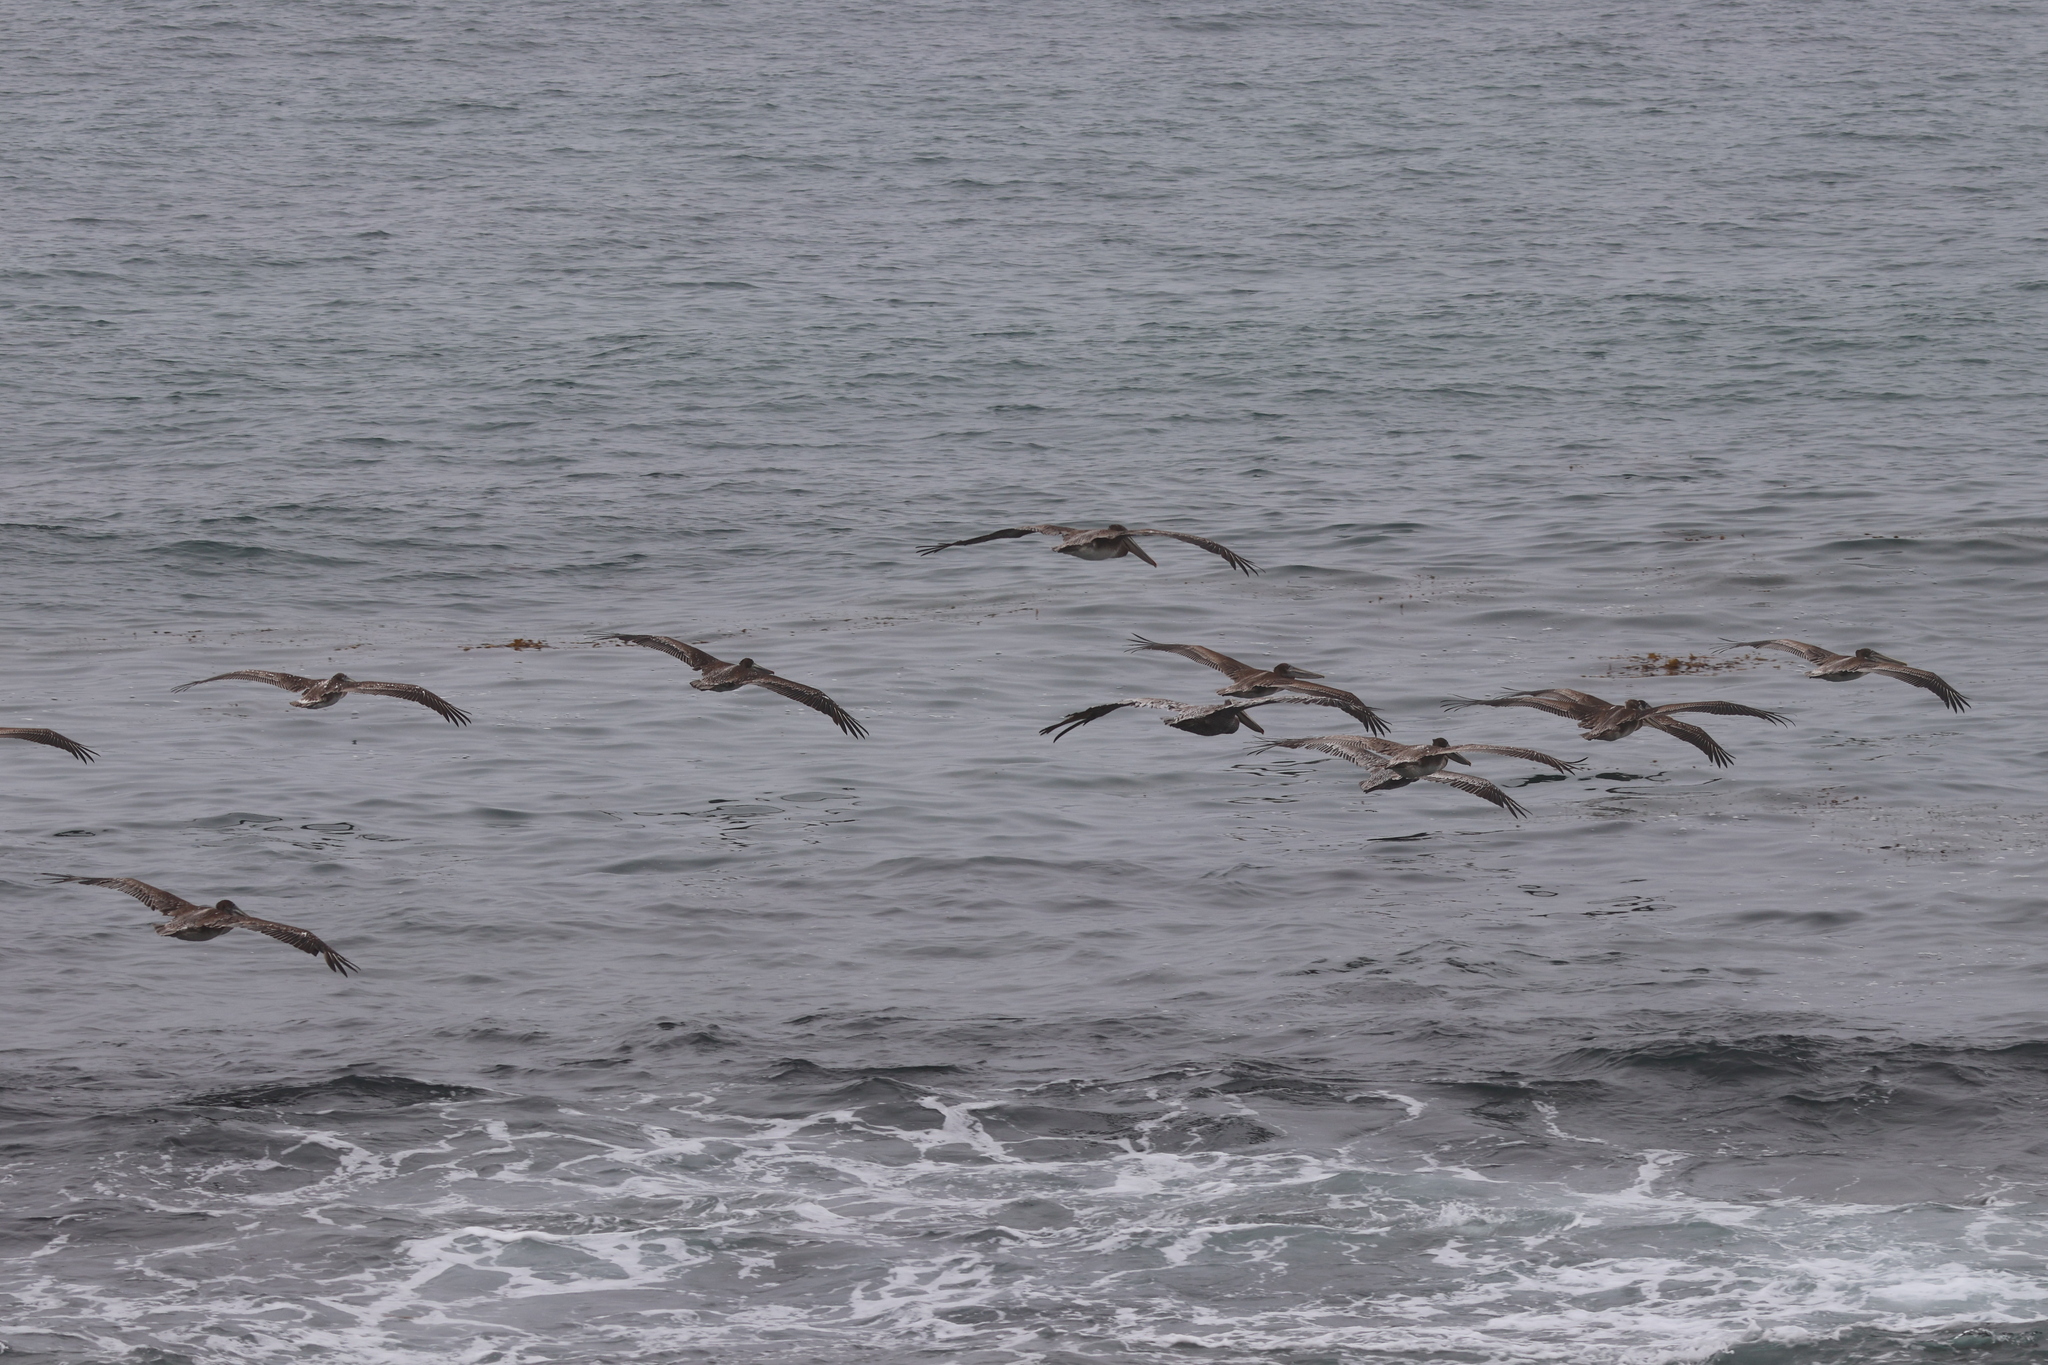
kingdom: Animalia
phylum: Chordata
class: Aves
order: Pelecaniformes
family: Pelecanidae
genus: Pelecanus
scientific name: Pelecanus occidentalis
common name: Brown pelican
